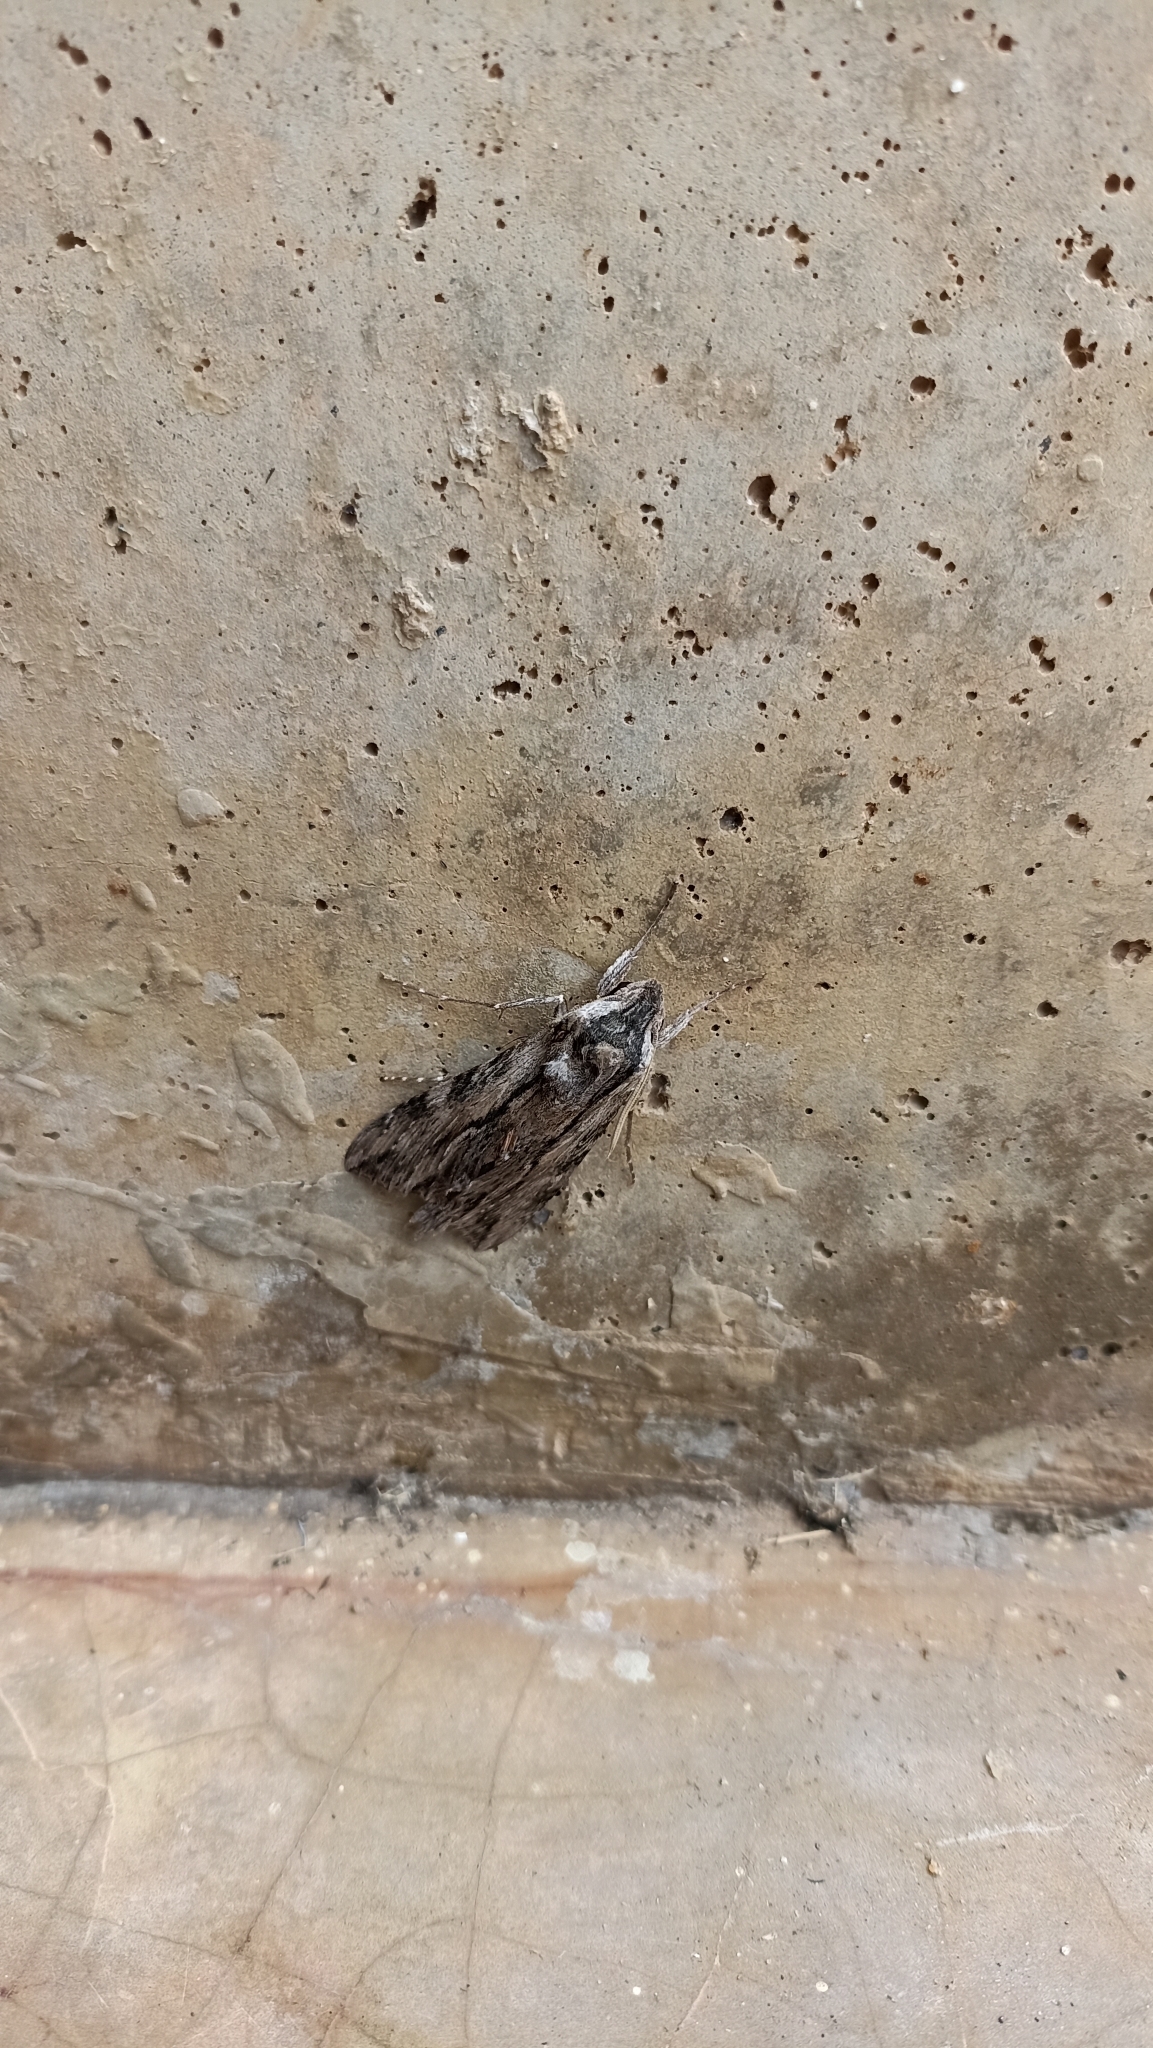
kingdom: Animalia
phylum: Arthropoda
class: Insecta
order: Lepidoptera
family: Sphingidae
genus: Erinnyis
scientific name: Erinnyis obscura
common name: Obscure sphinx
